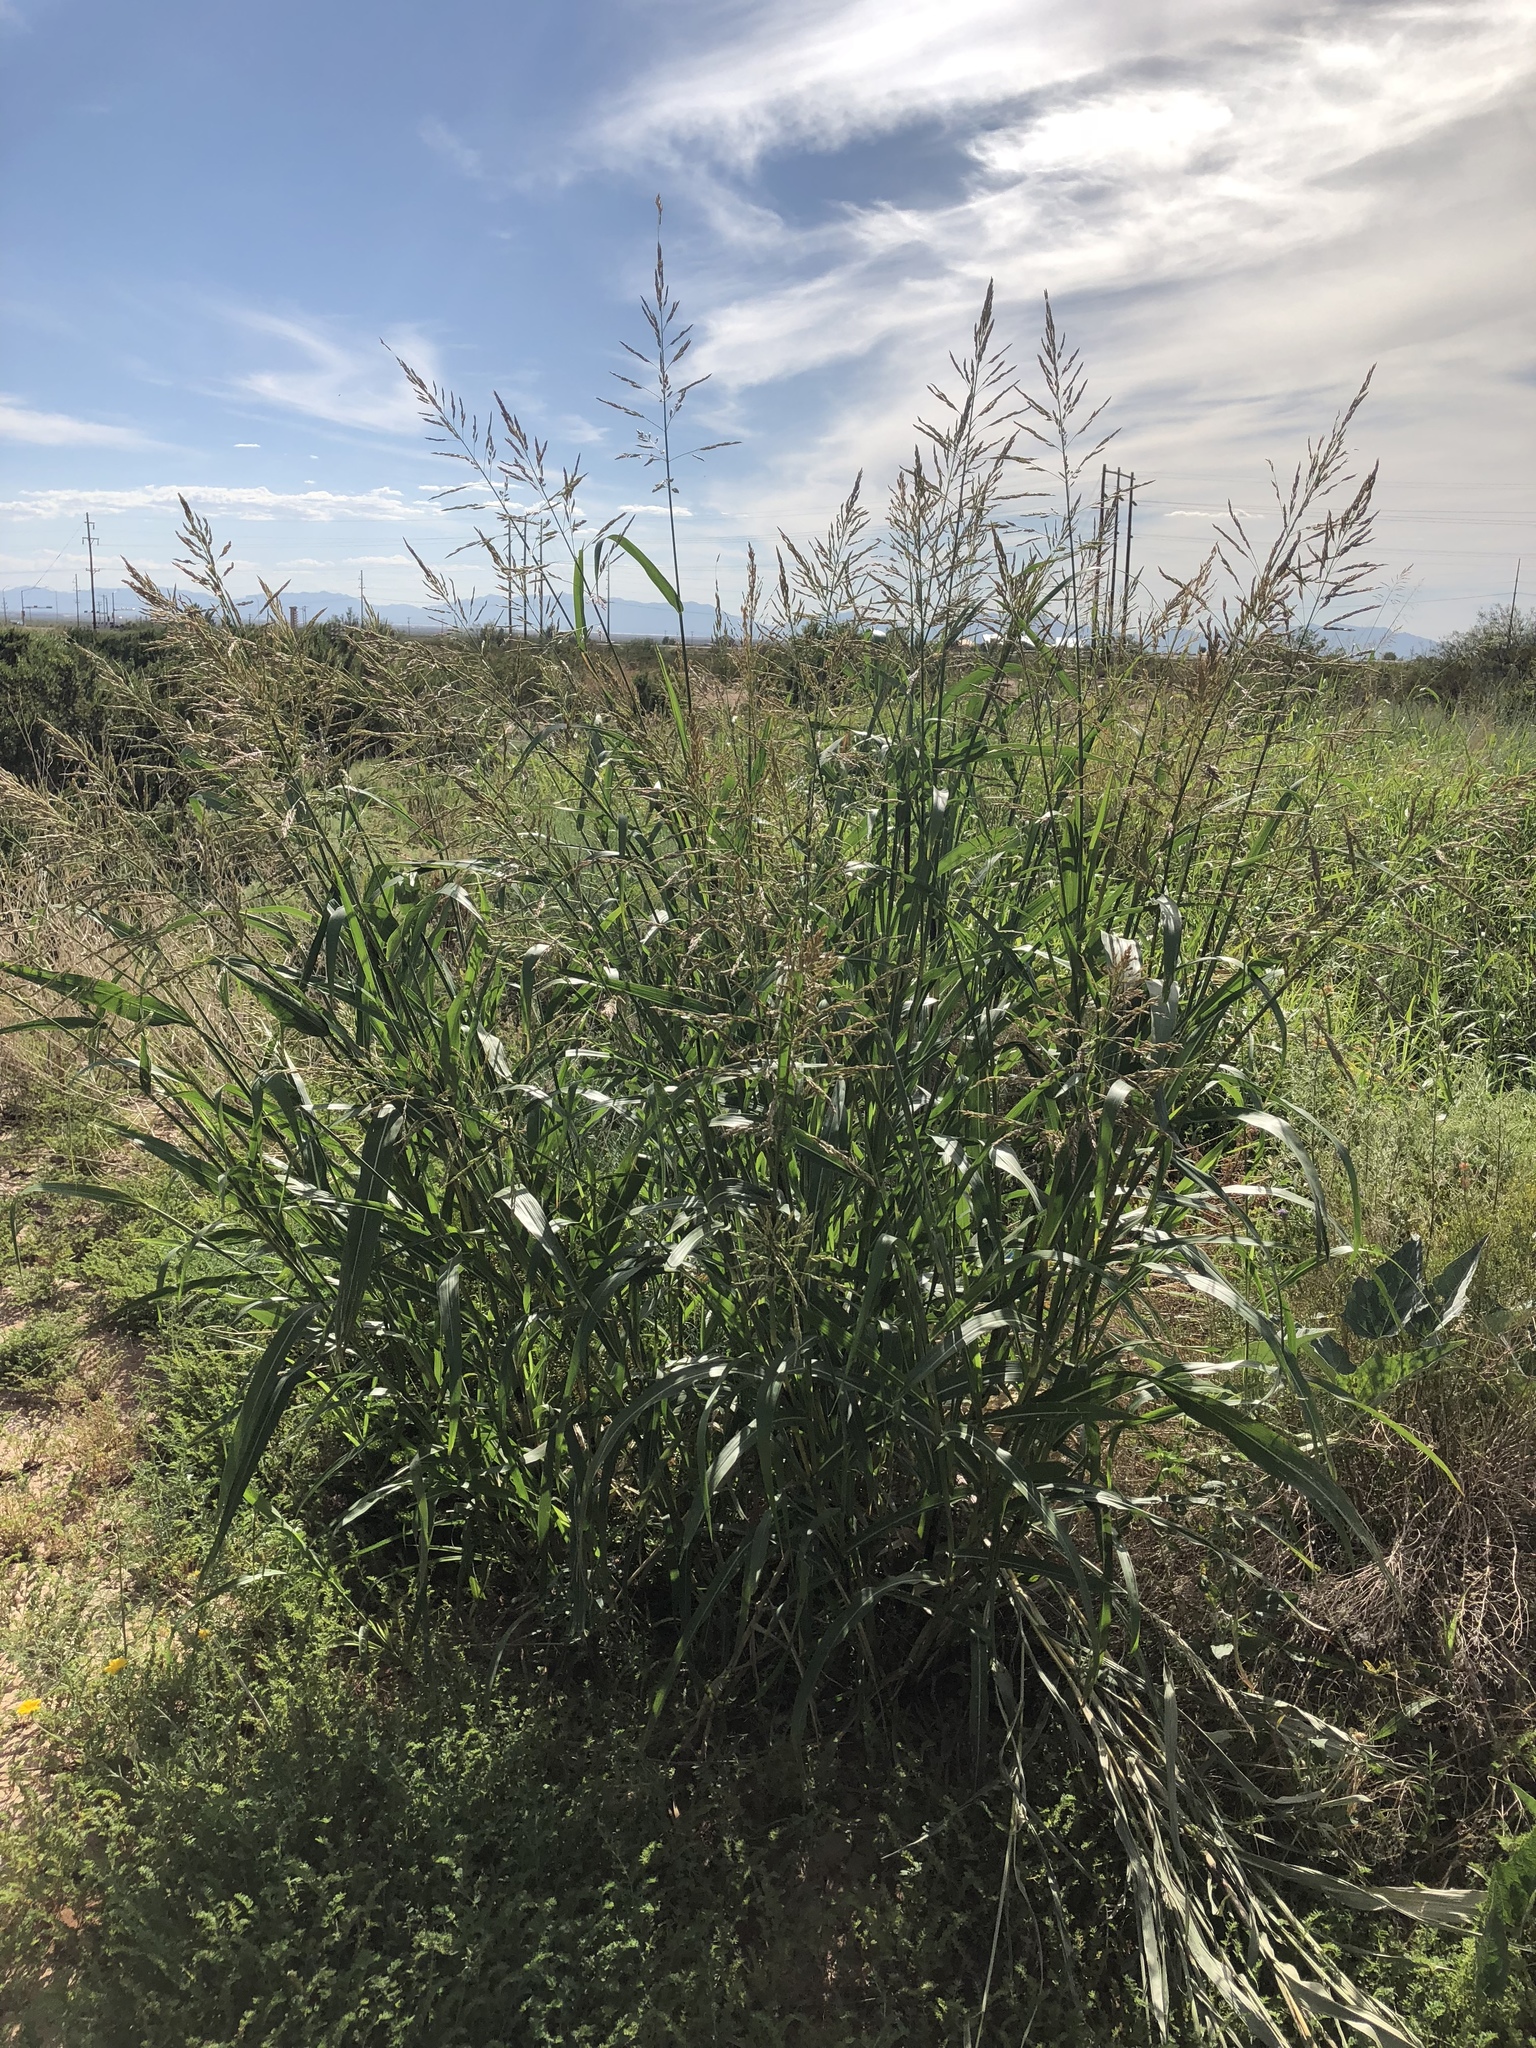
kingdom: Plantae
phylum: Tracheophyta
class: Liliopsida
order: Poales
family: Poaceae
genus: Sorghum
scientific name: Sorghum halepense
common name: Johnson-grass
